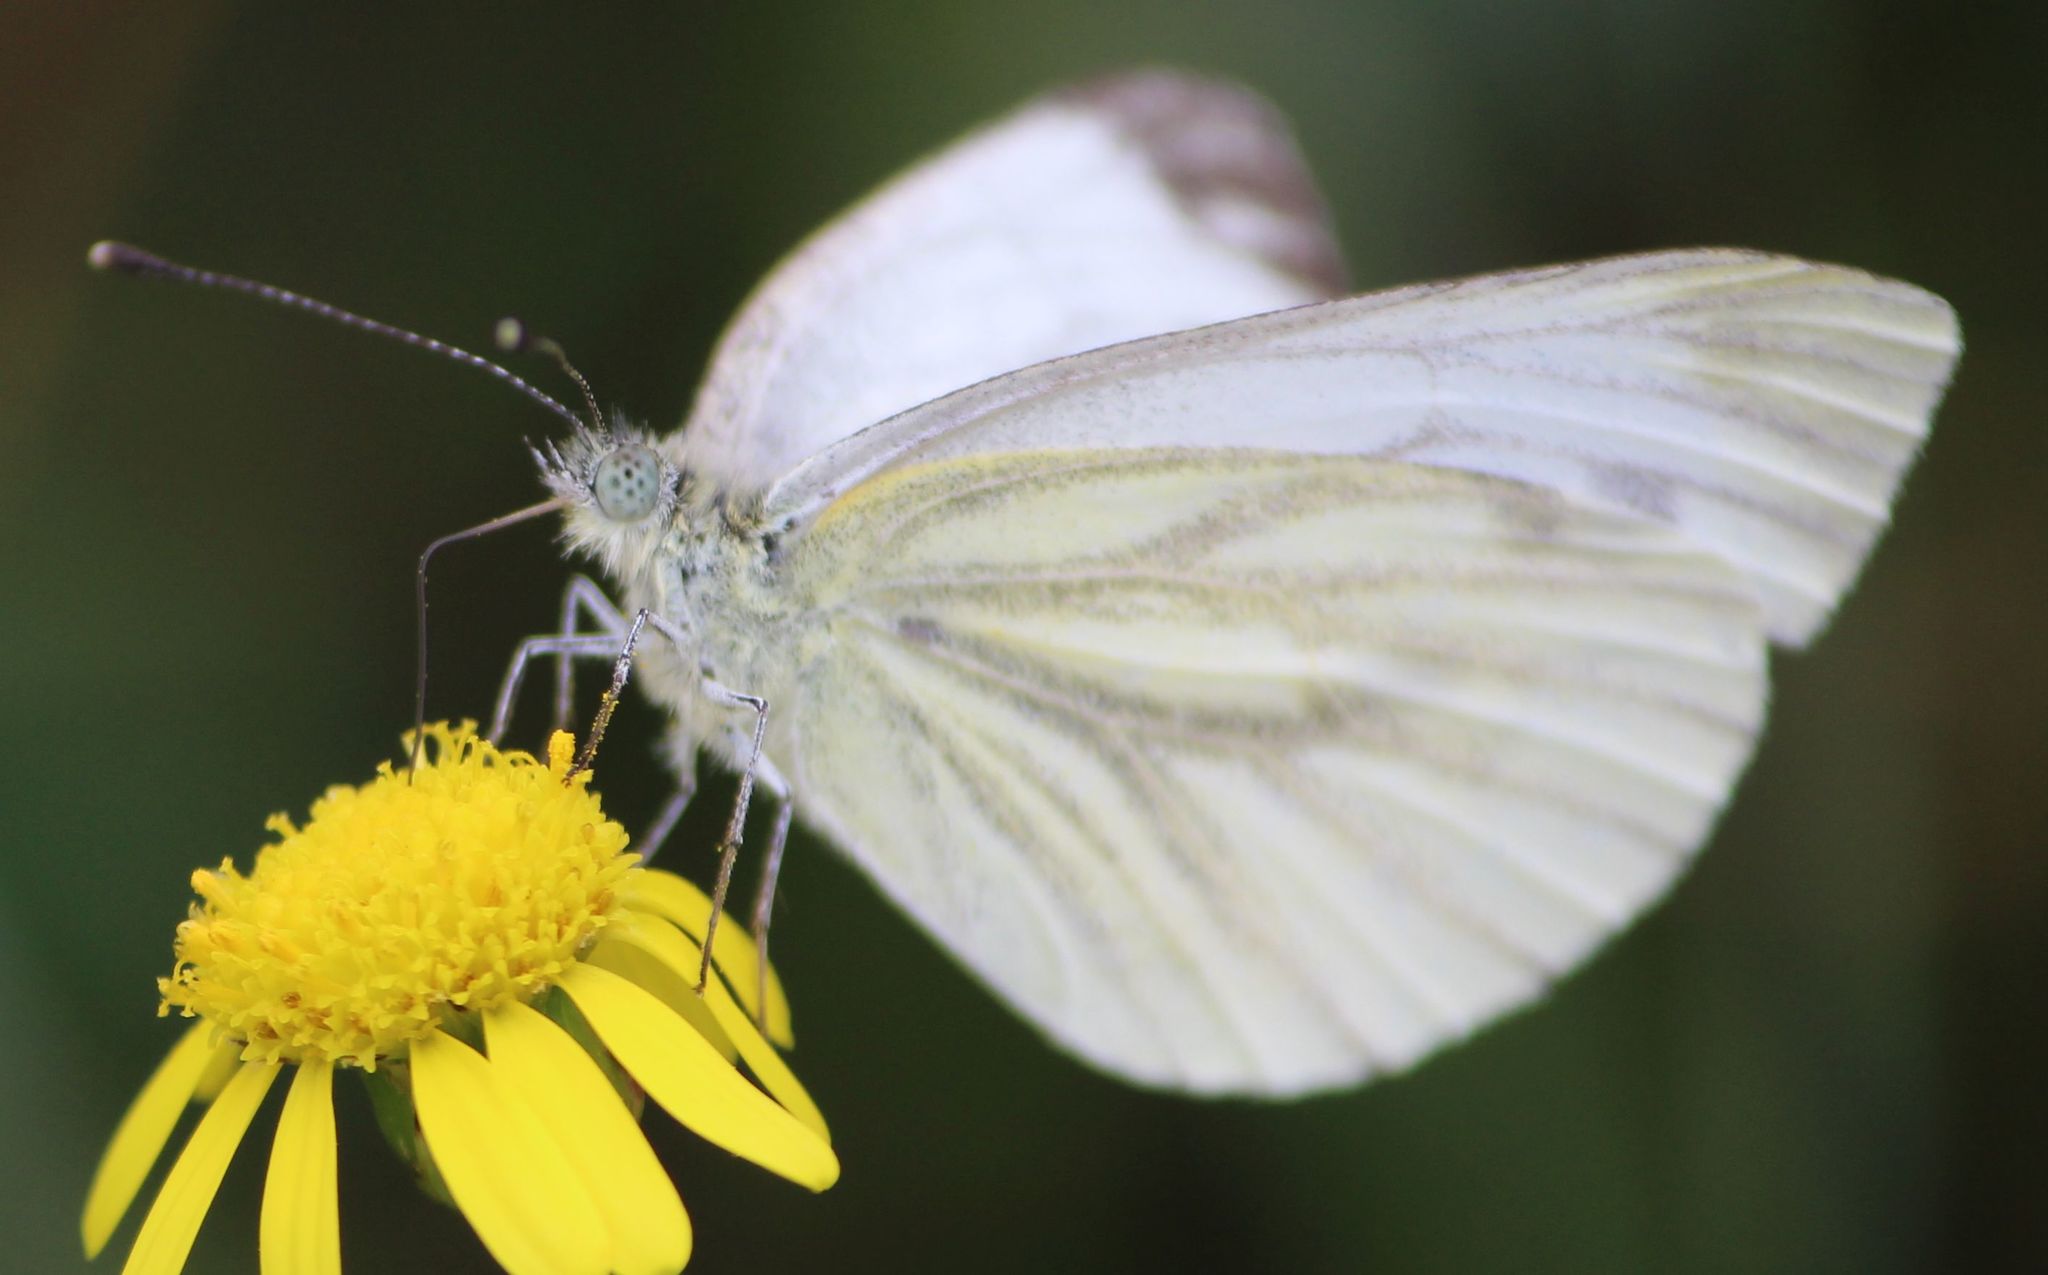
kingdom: Animalia
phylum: Arthropoda
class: Insecta
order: Lepidoptera
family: Pieridae
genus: Pieris
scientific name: Pieris napi
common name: Green-veined white
